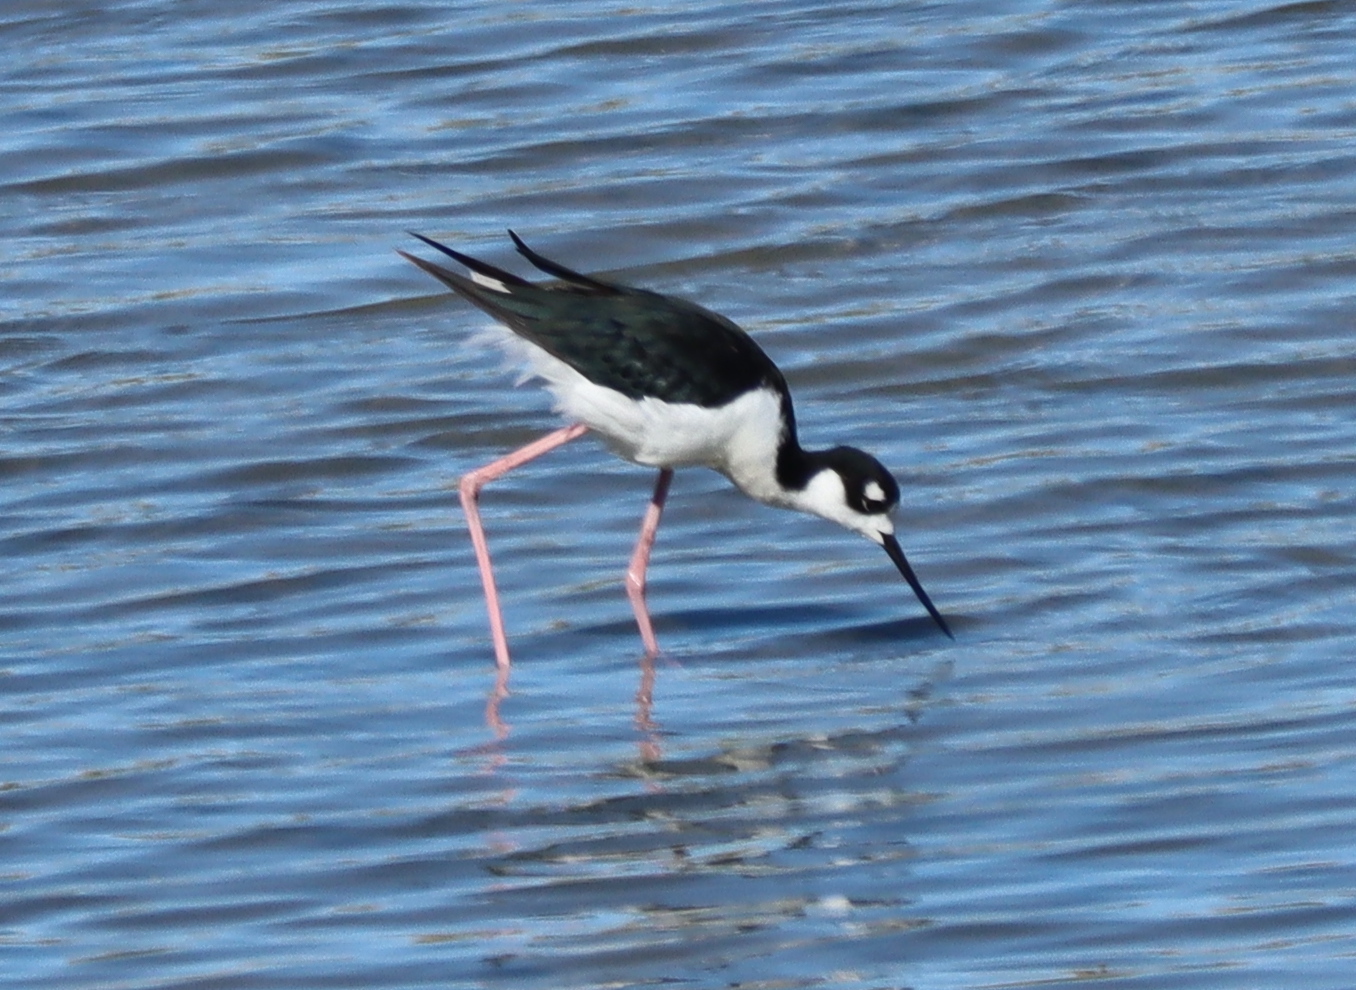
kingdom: Animalia
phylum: Chordata
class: Aves
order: Charadriiformes
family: Recurvirostridae
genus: Himantopus
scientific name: Himantopus mexicanus
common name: Black-necked stilt
